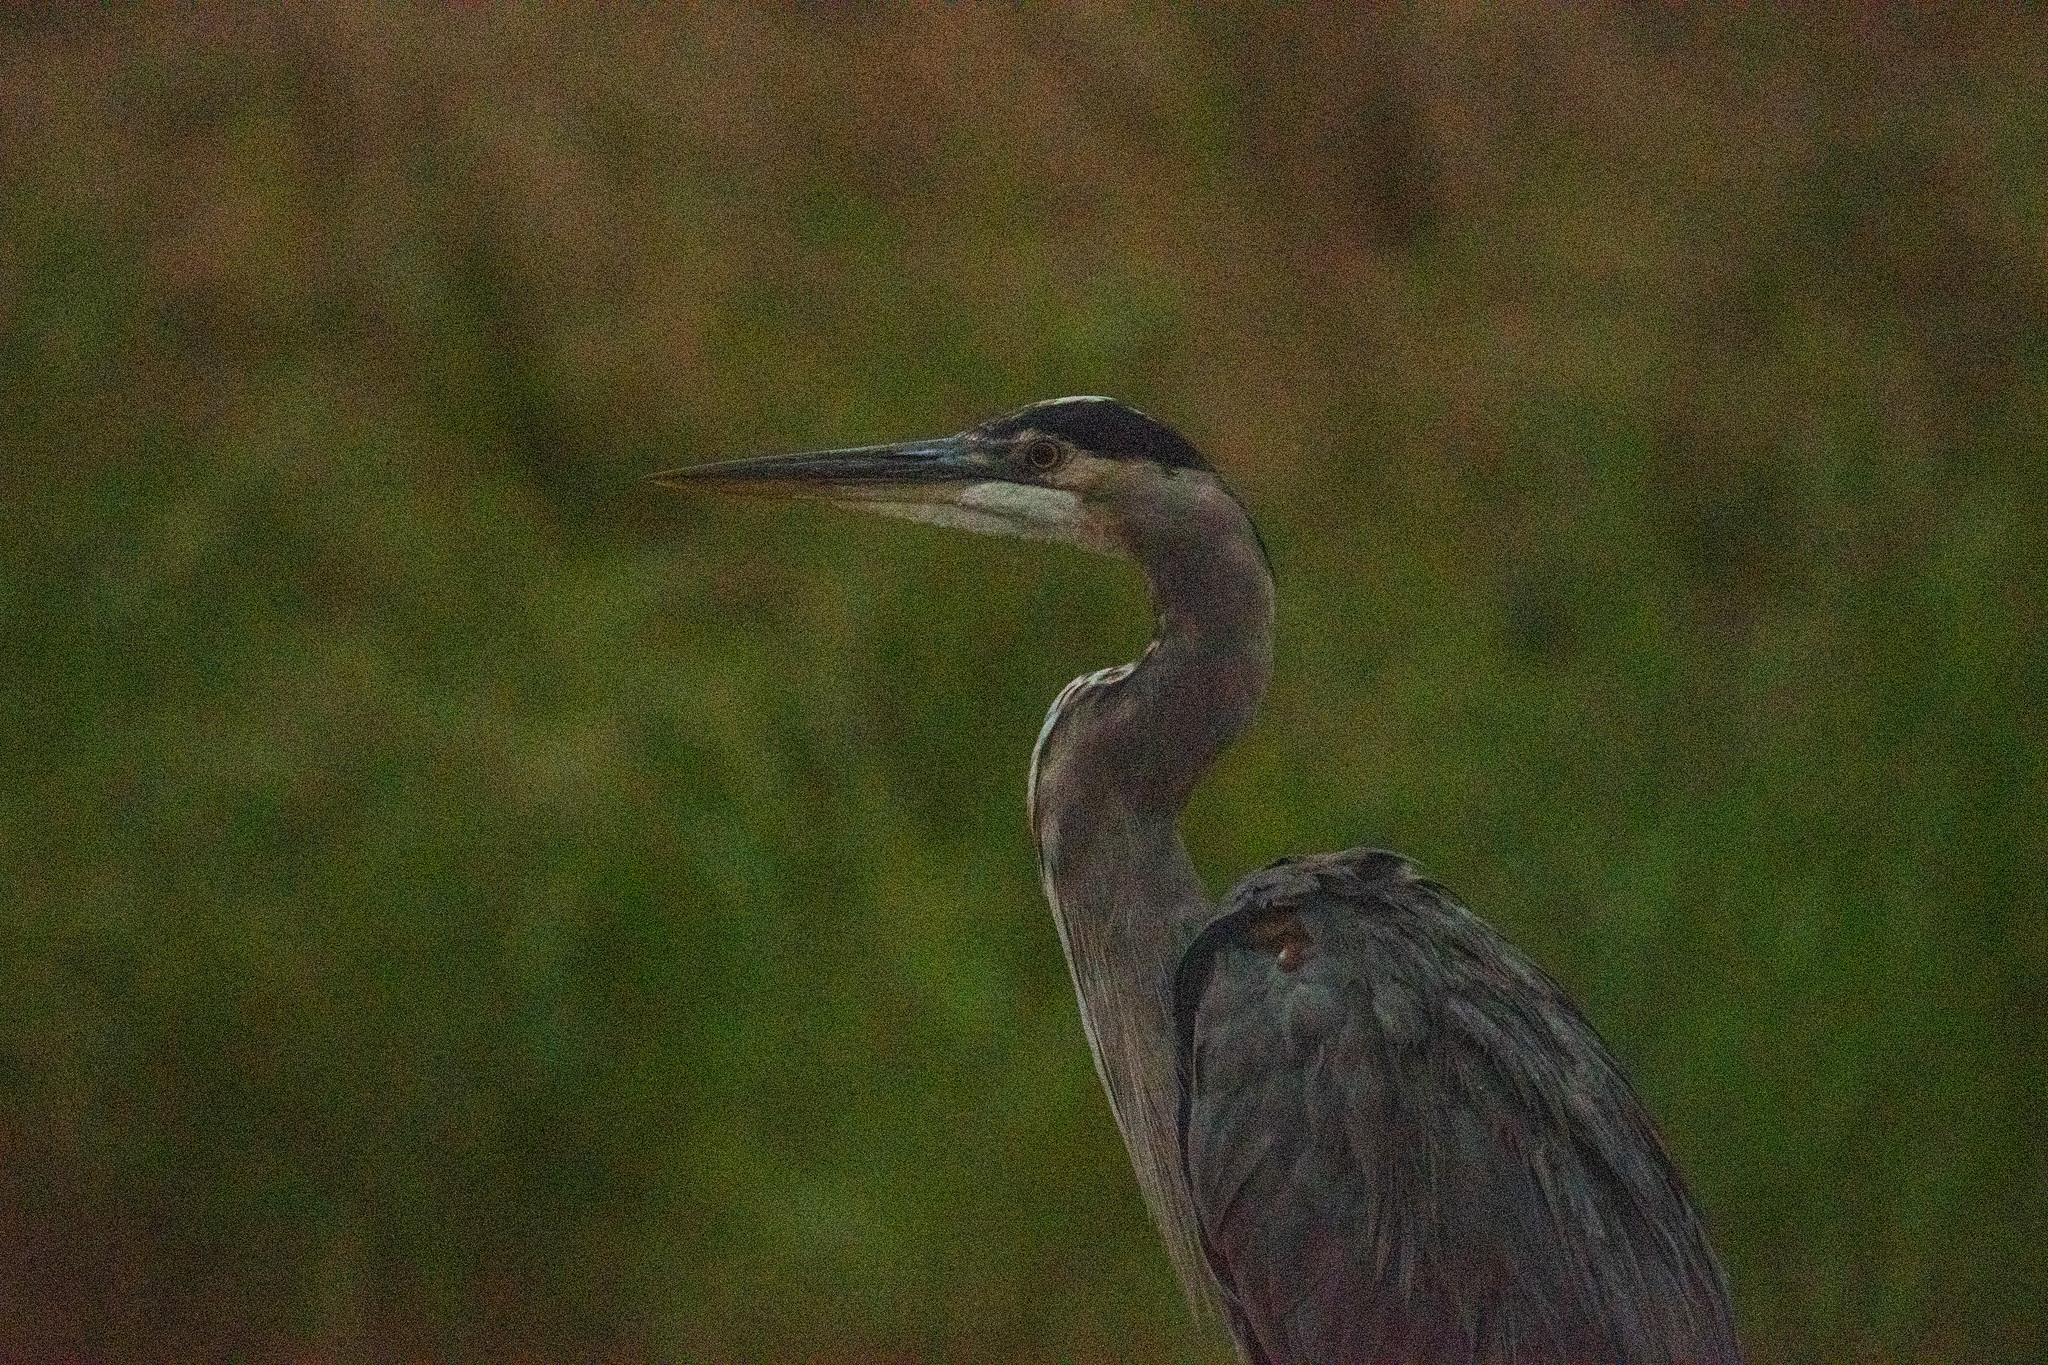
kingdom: Animalia
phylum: Chordata
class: Aves
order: Pelecaniformes
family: Ardeidae
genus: Ardea
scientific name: Ardea herodias
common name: Great blue heron
